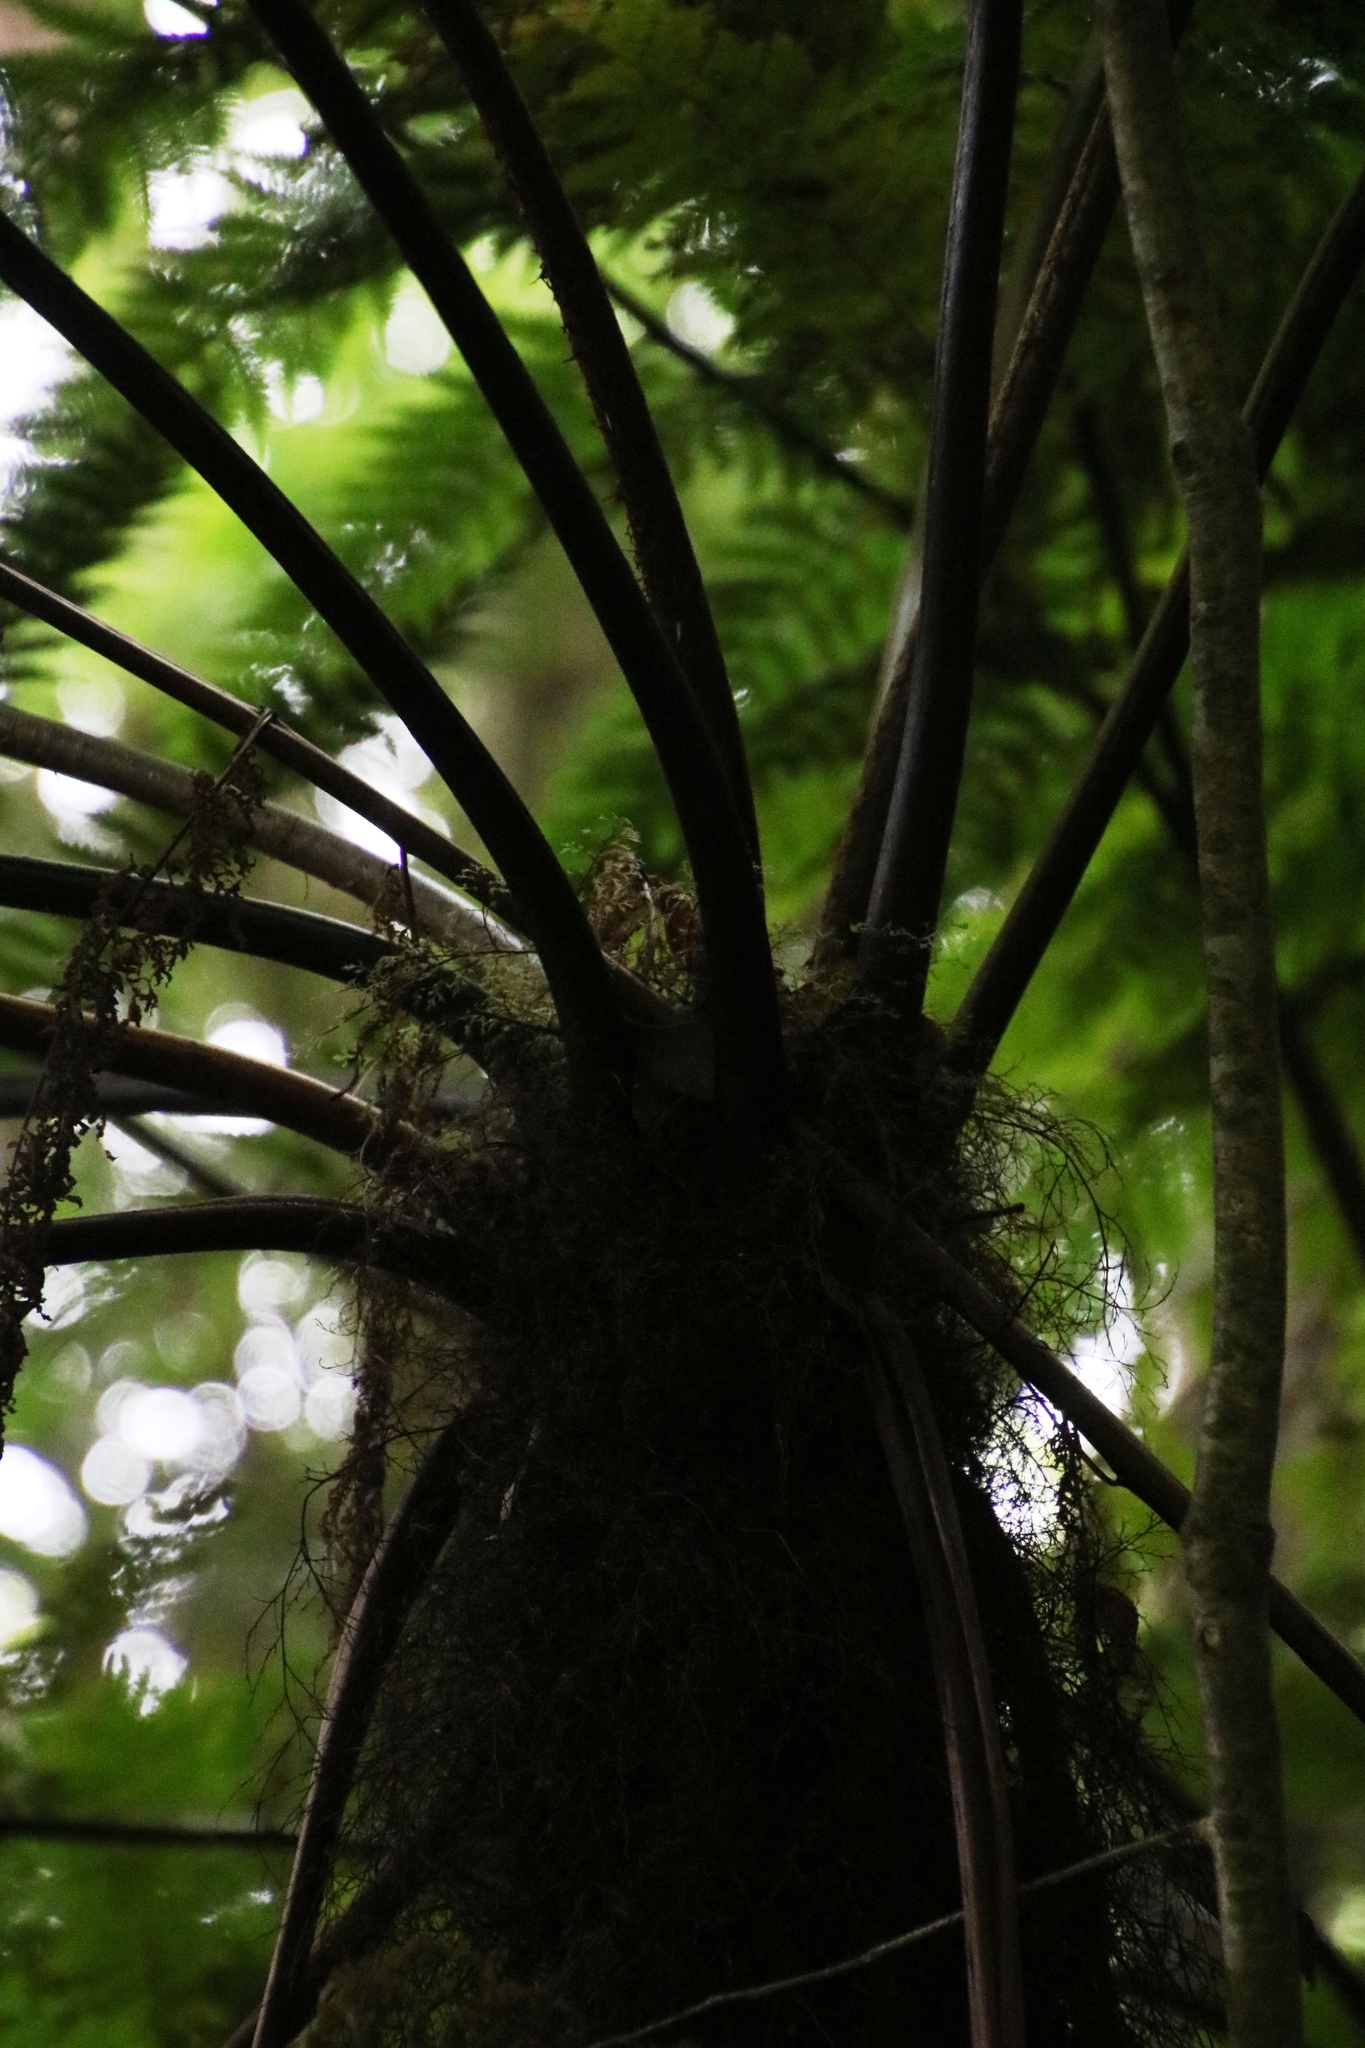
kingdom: Plantae
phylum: Tracheophyta
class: Polypodiopsida
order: Cyatheales
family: Cyatheaceae
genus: Gymnosphaera
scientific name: Gymnosphaera capensis
